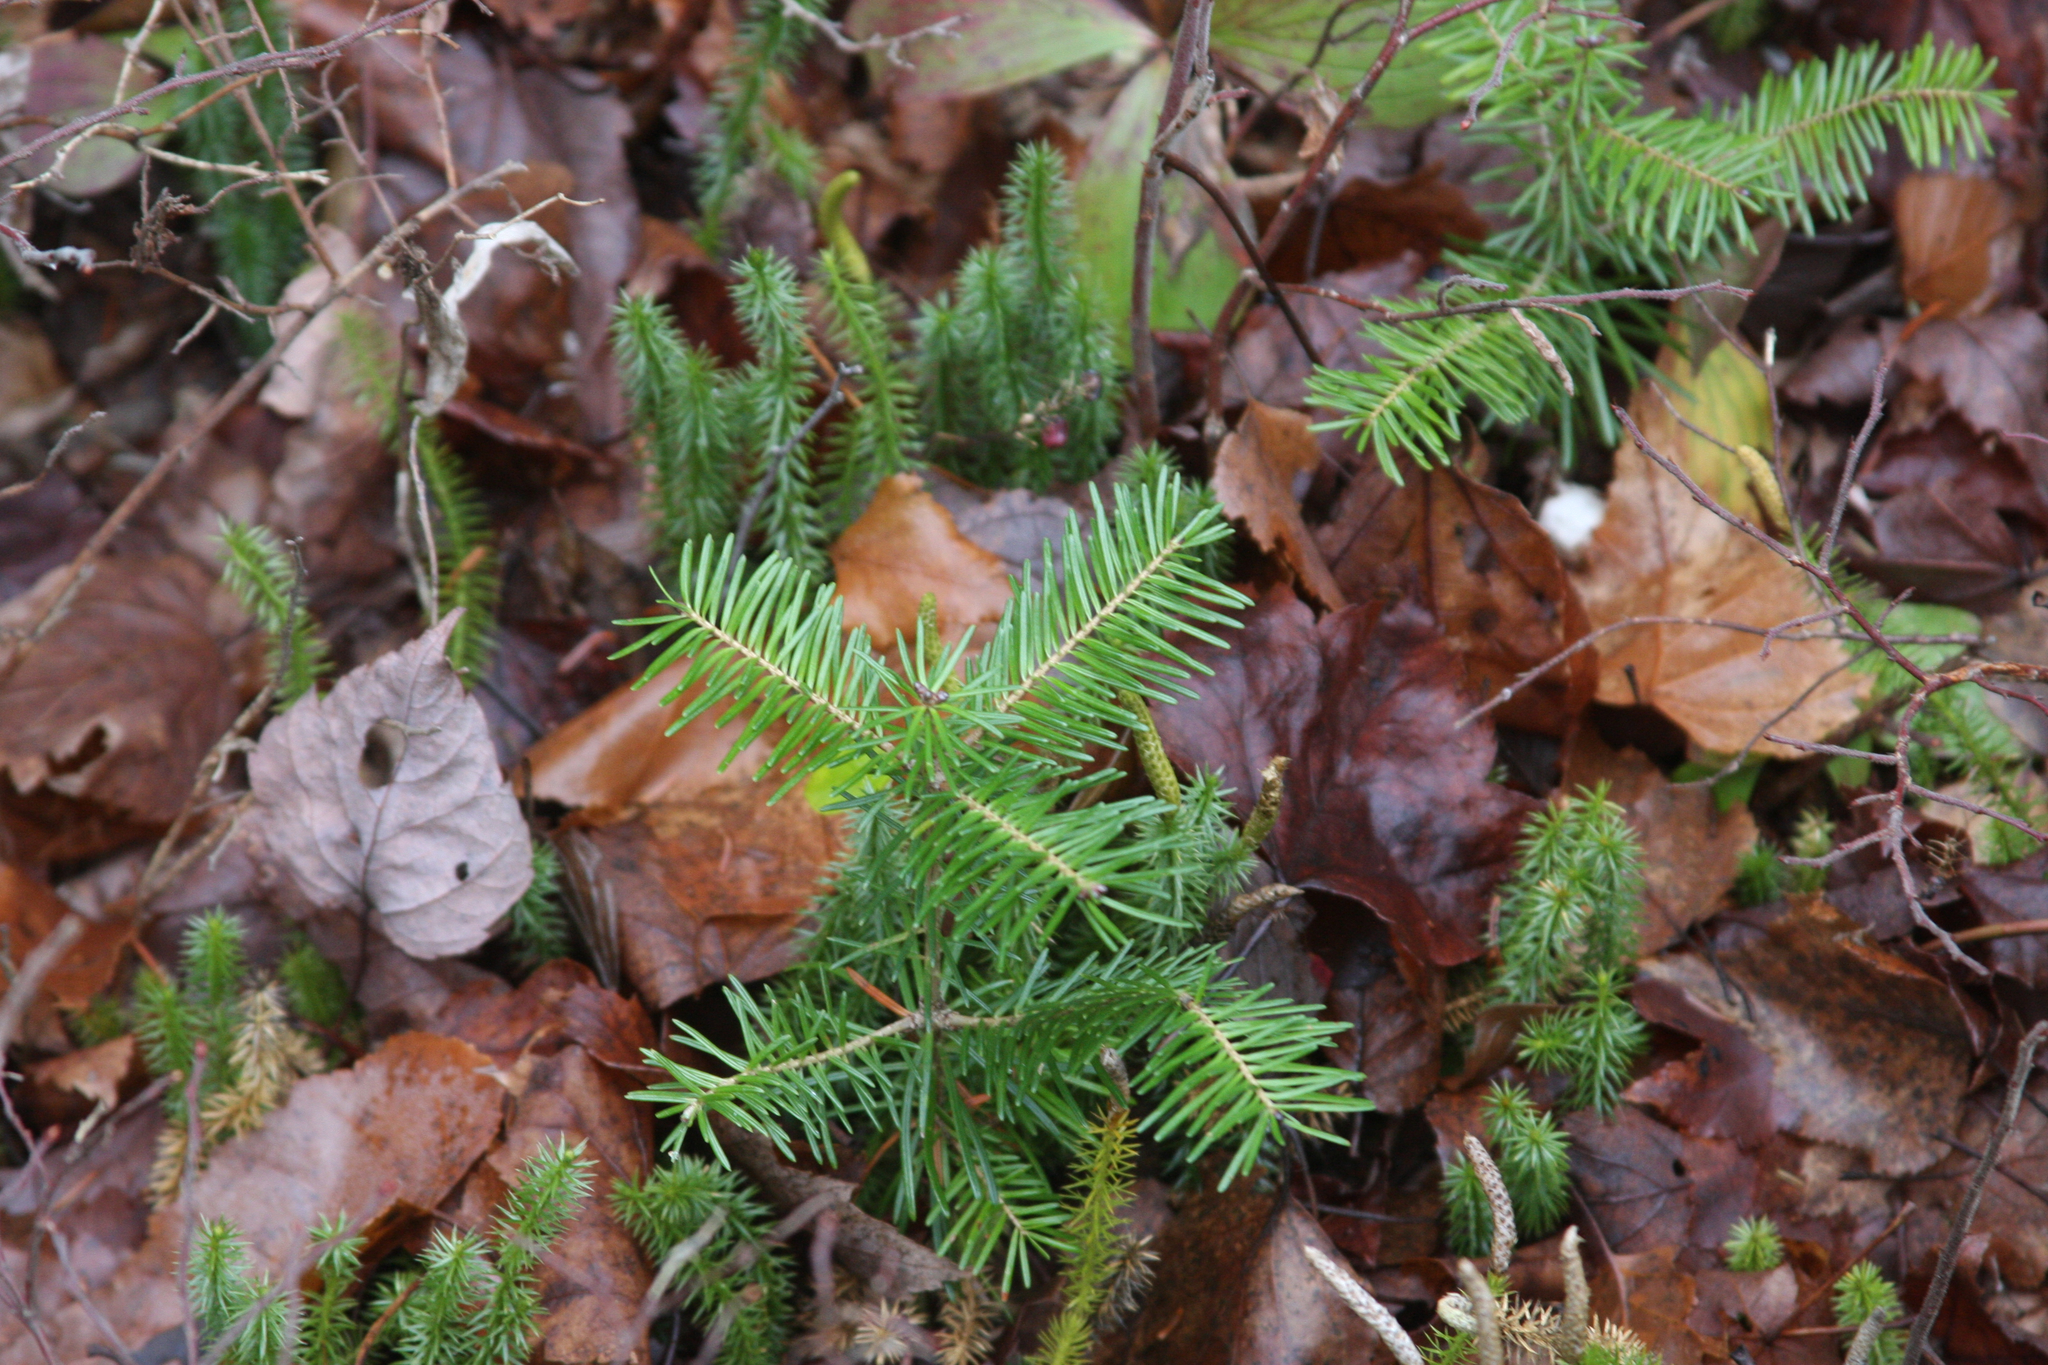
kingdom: Plantae
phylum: Tracheophyta
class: Pinopsida
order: Pinales
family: Pinaceae
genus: Abies
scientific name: Abies balsamea
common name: Balsam fir
